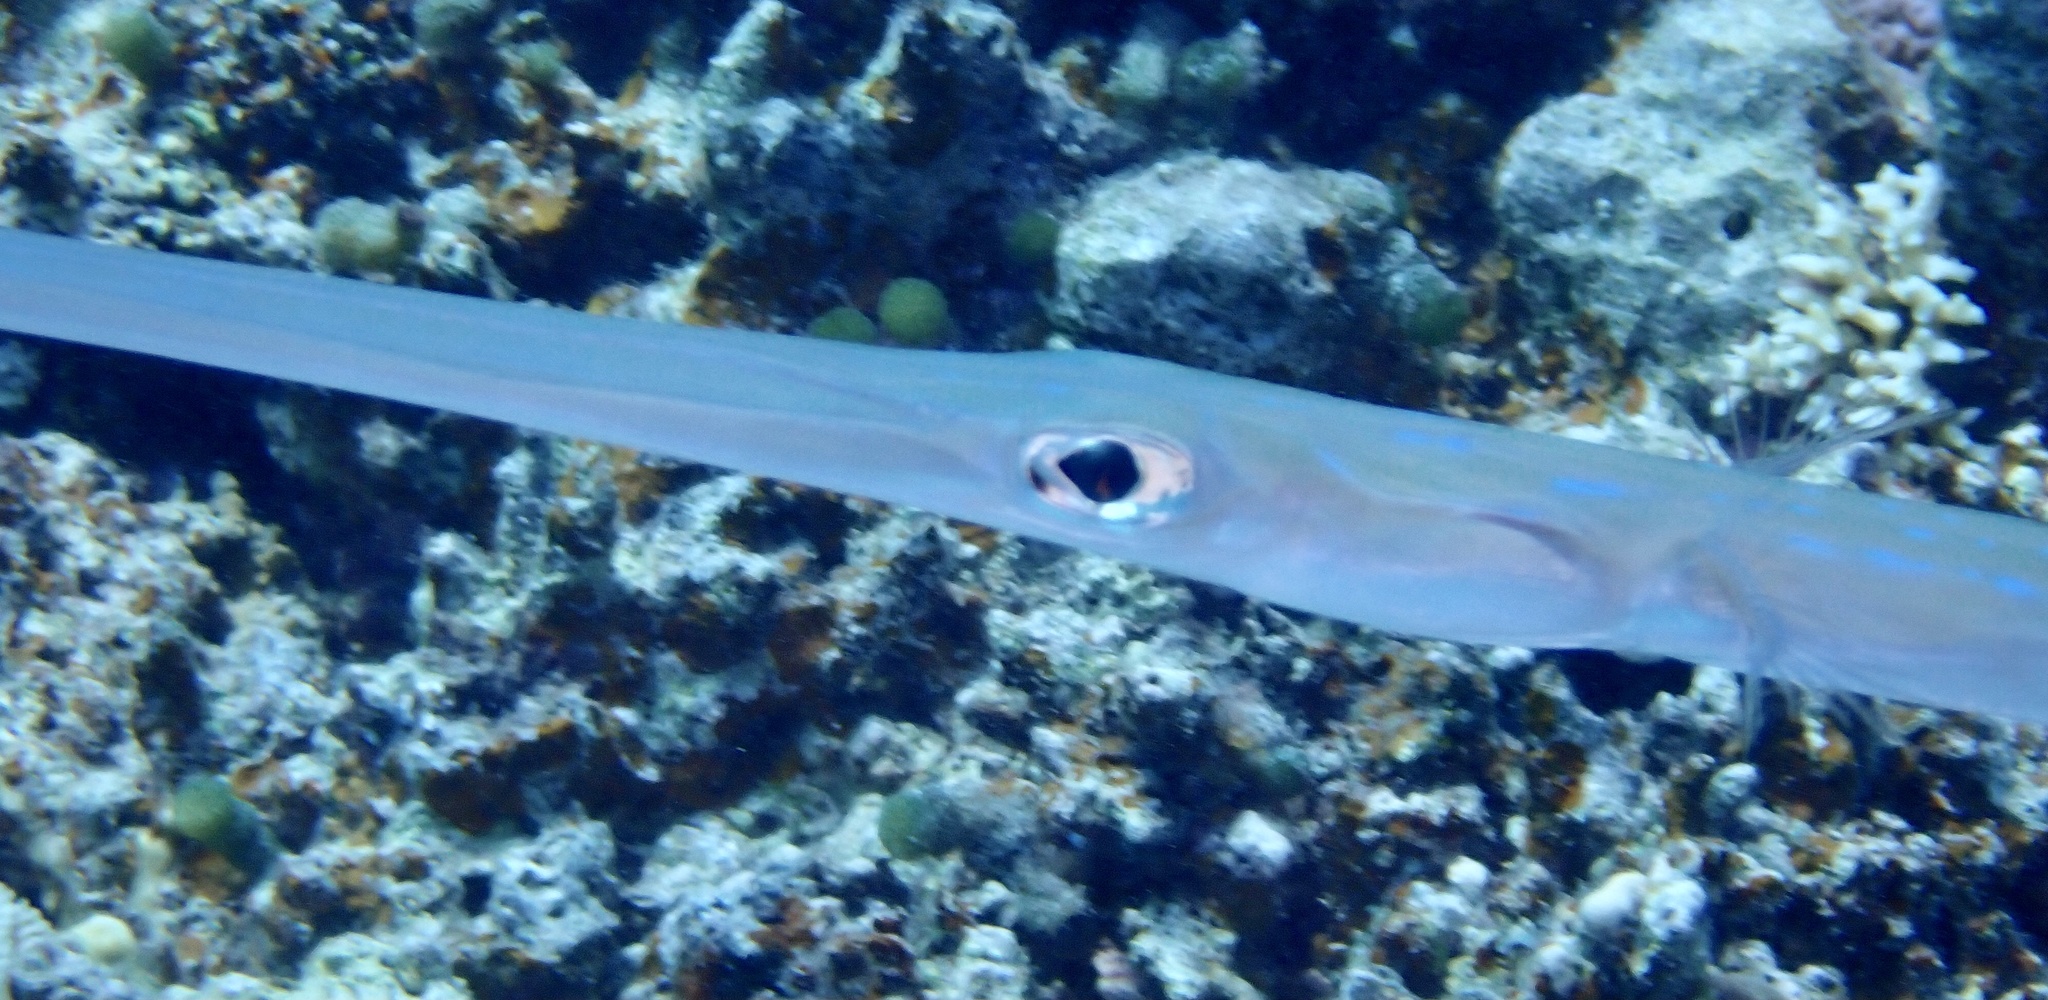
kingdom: Animalia
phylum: Chordata
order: Syngnathiformes
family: Fistulariidae
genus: Fistularia
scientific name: Fistularia commersonii
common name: Bluespotted cornetfish
